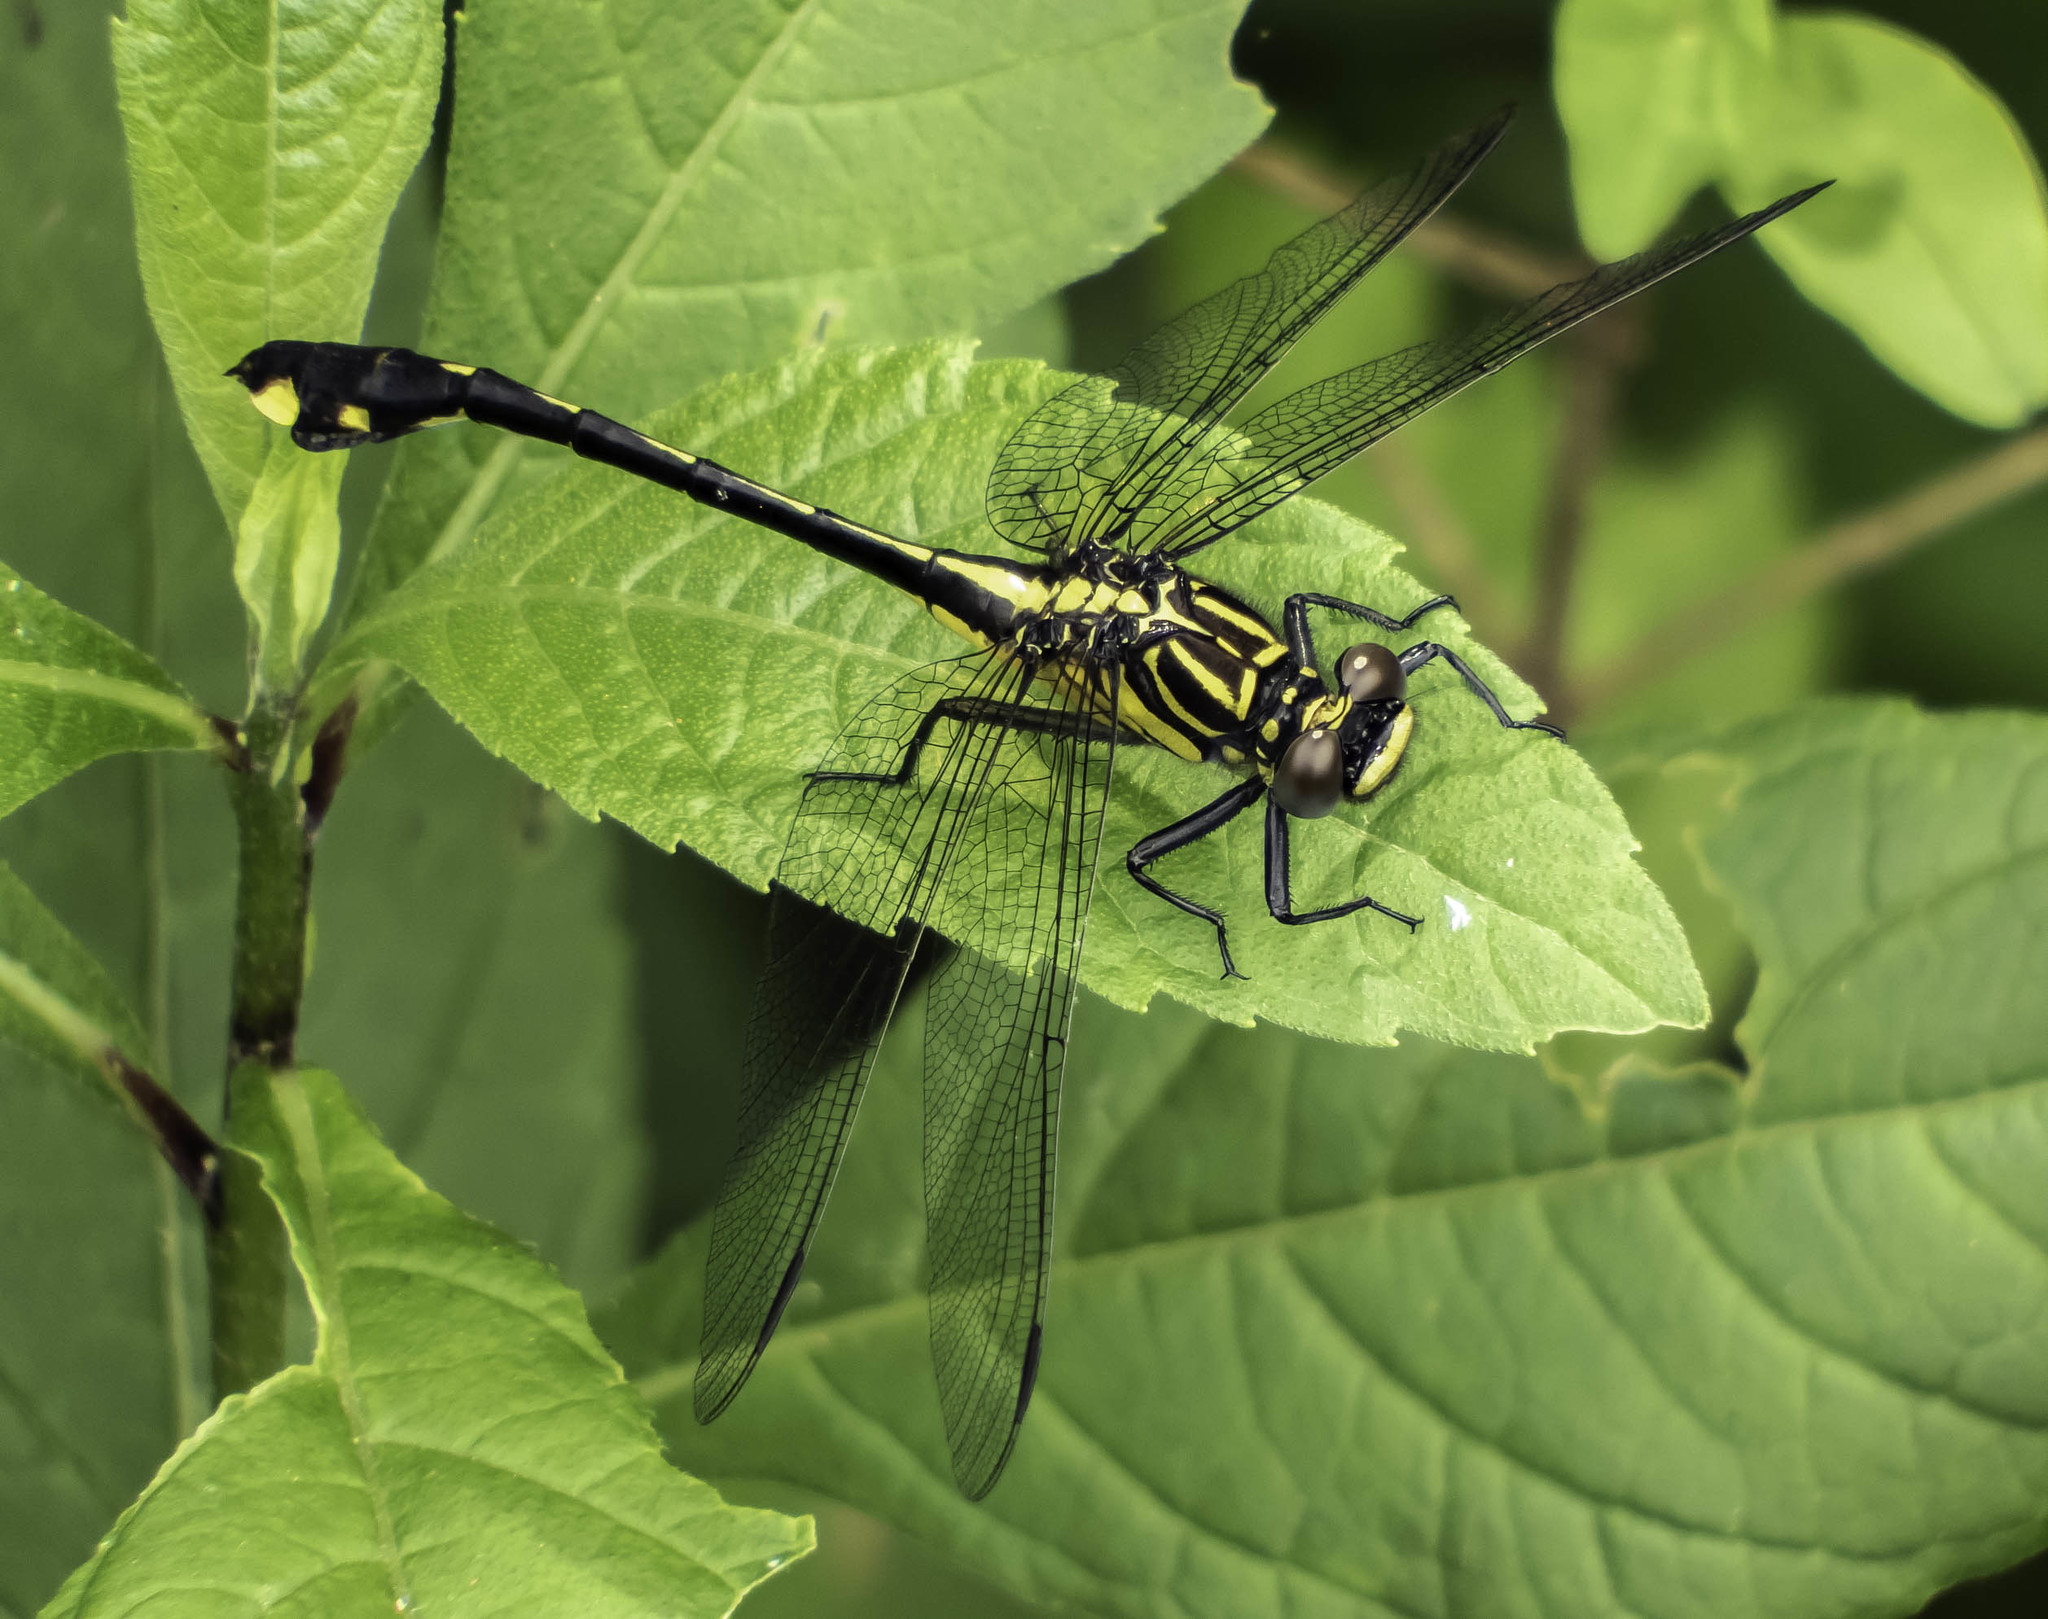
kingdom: Animalia
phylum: Arthropoda
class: Insecta
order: Odonata
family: Gomphidae
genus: Gomphurus
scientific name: Gomphurus vastus
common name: Cobra clubtail
